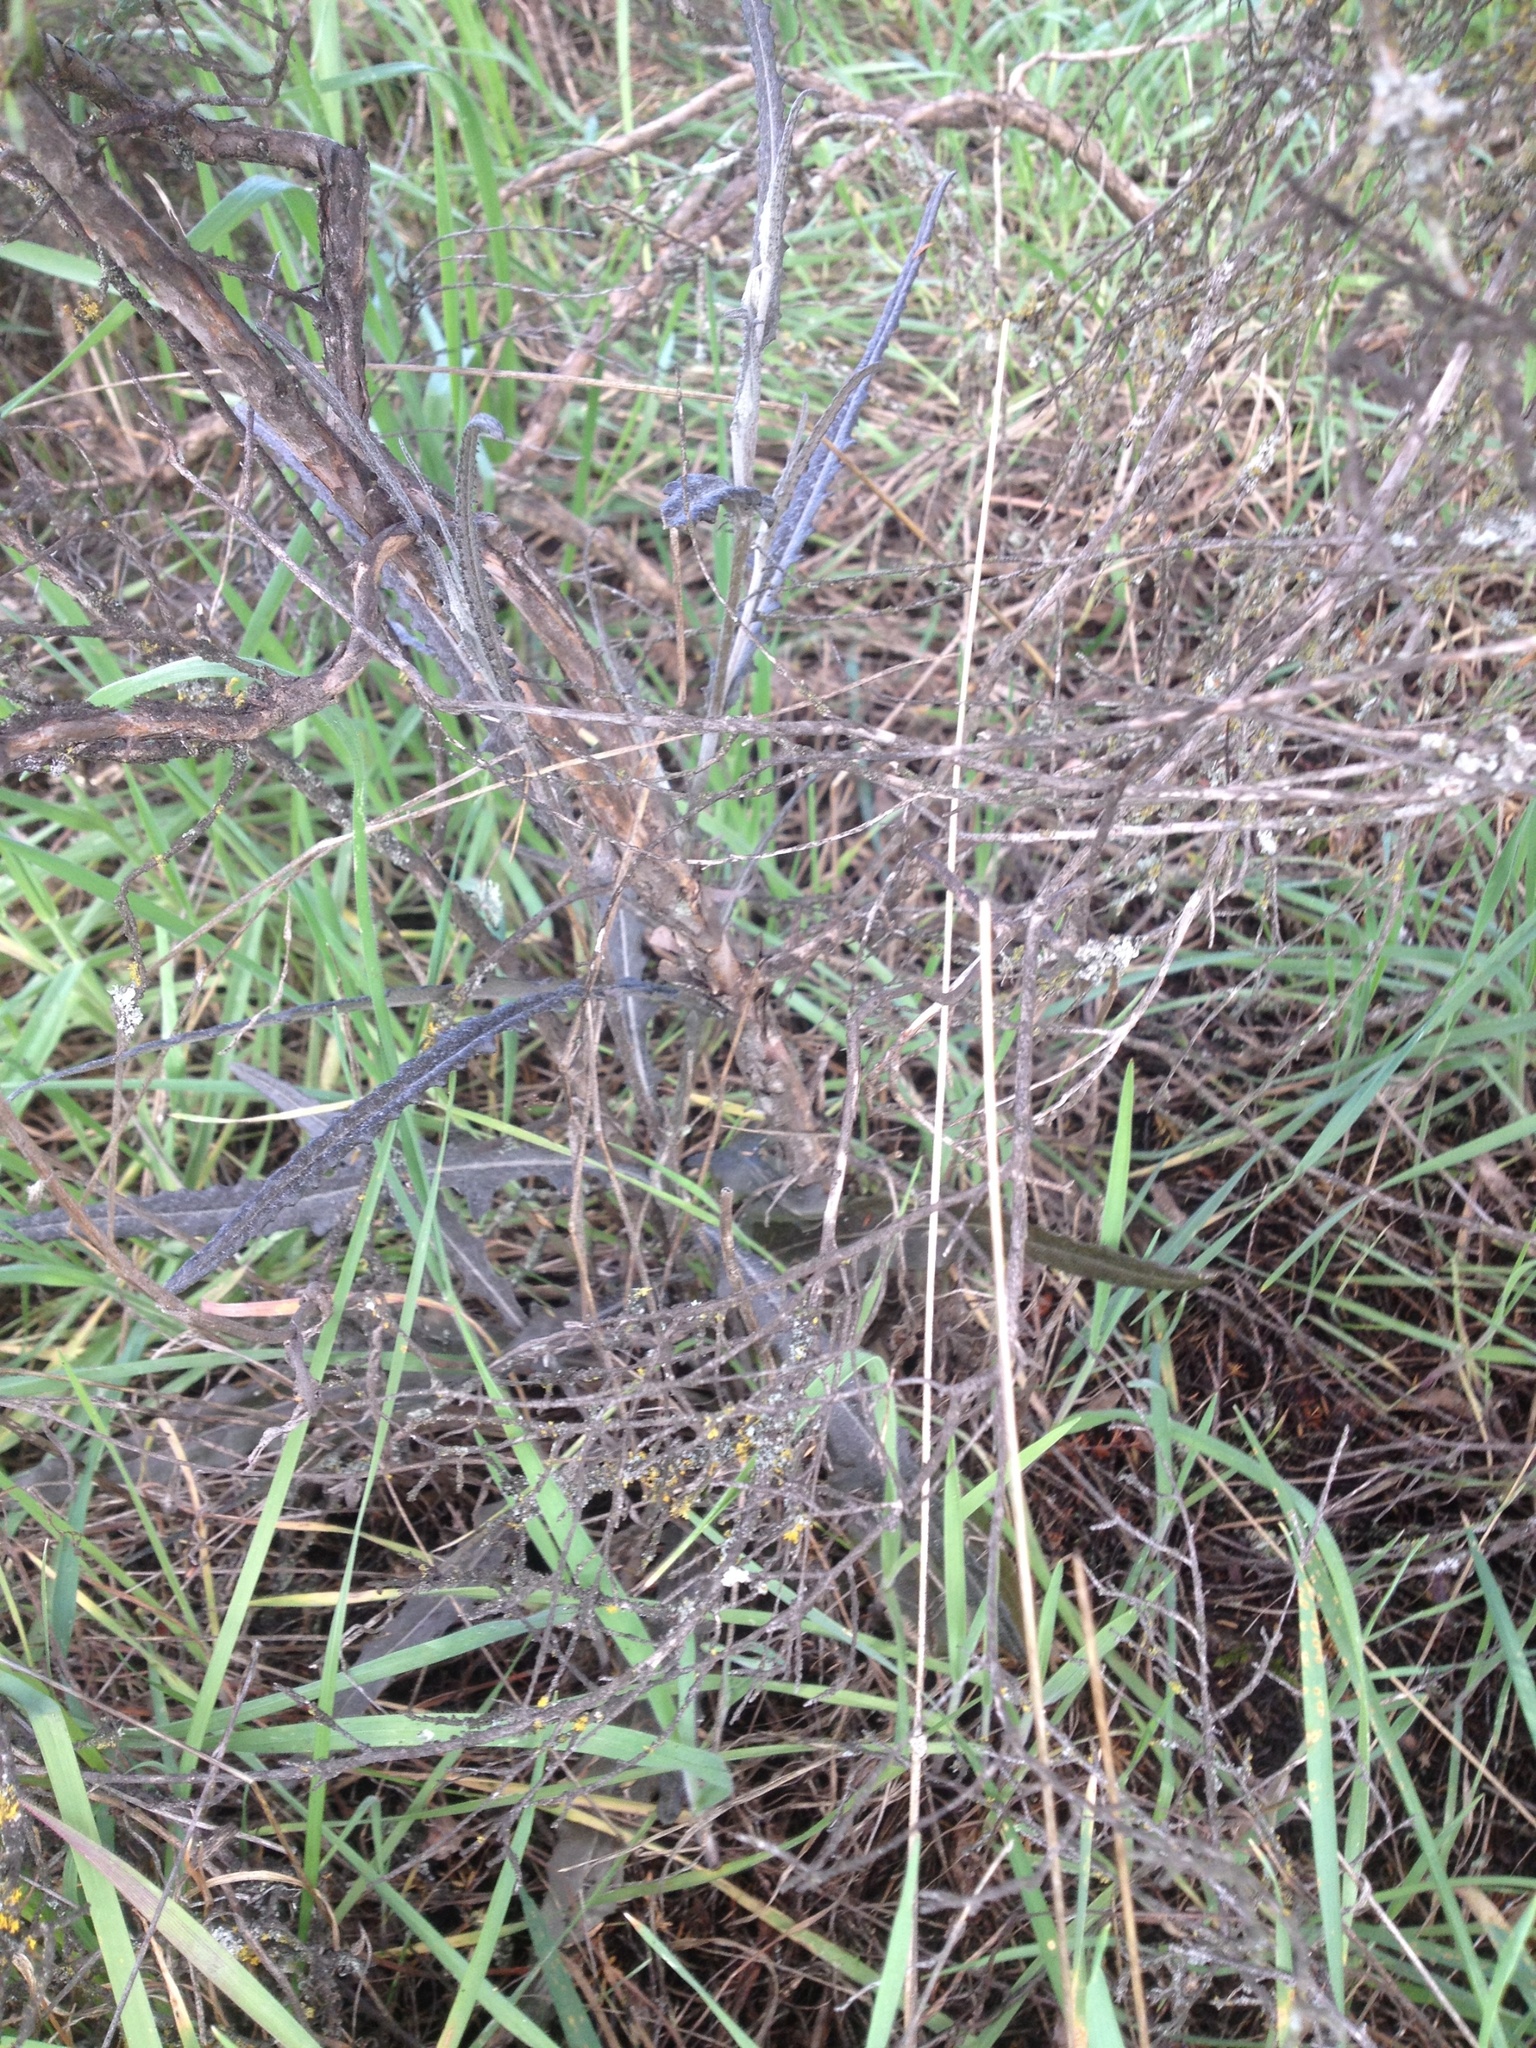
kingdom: Plantae
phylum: Tracheophyta
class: Magnoliopsida
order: Asterales
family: Asteraceae
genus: Senecio
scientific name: Senecio dunedinensis
